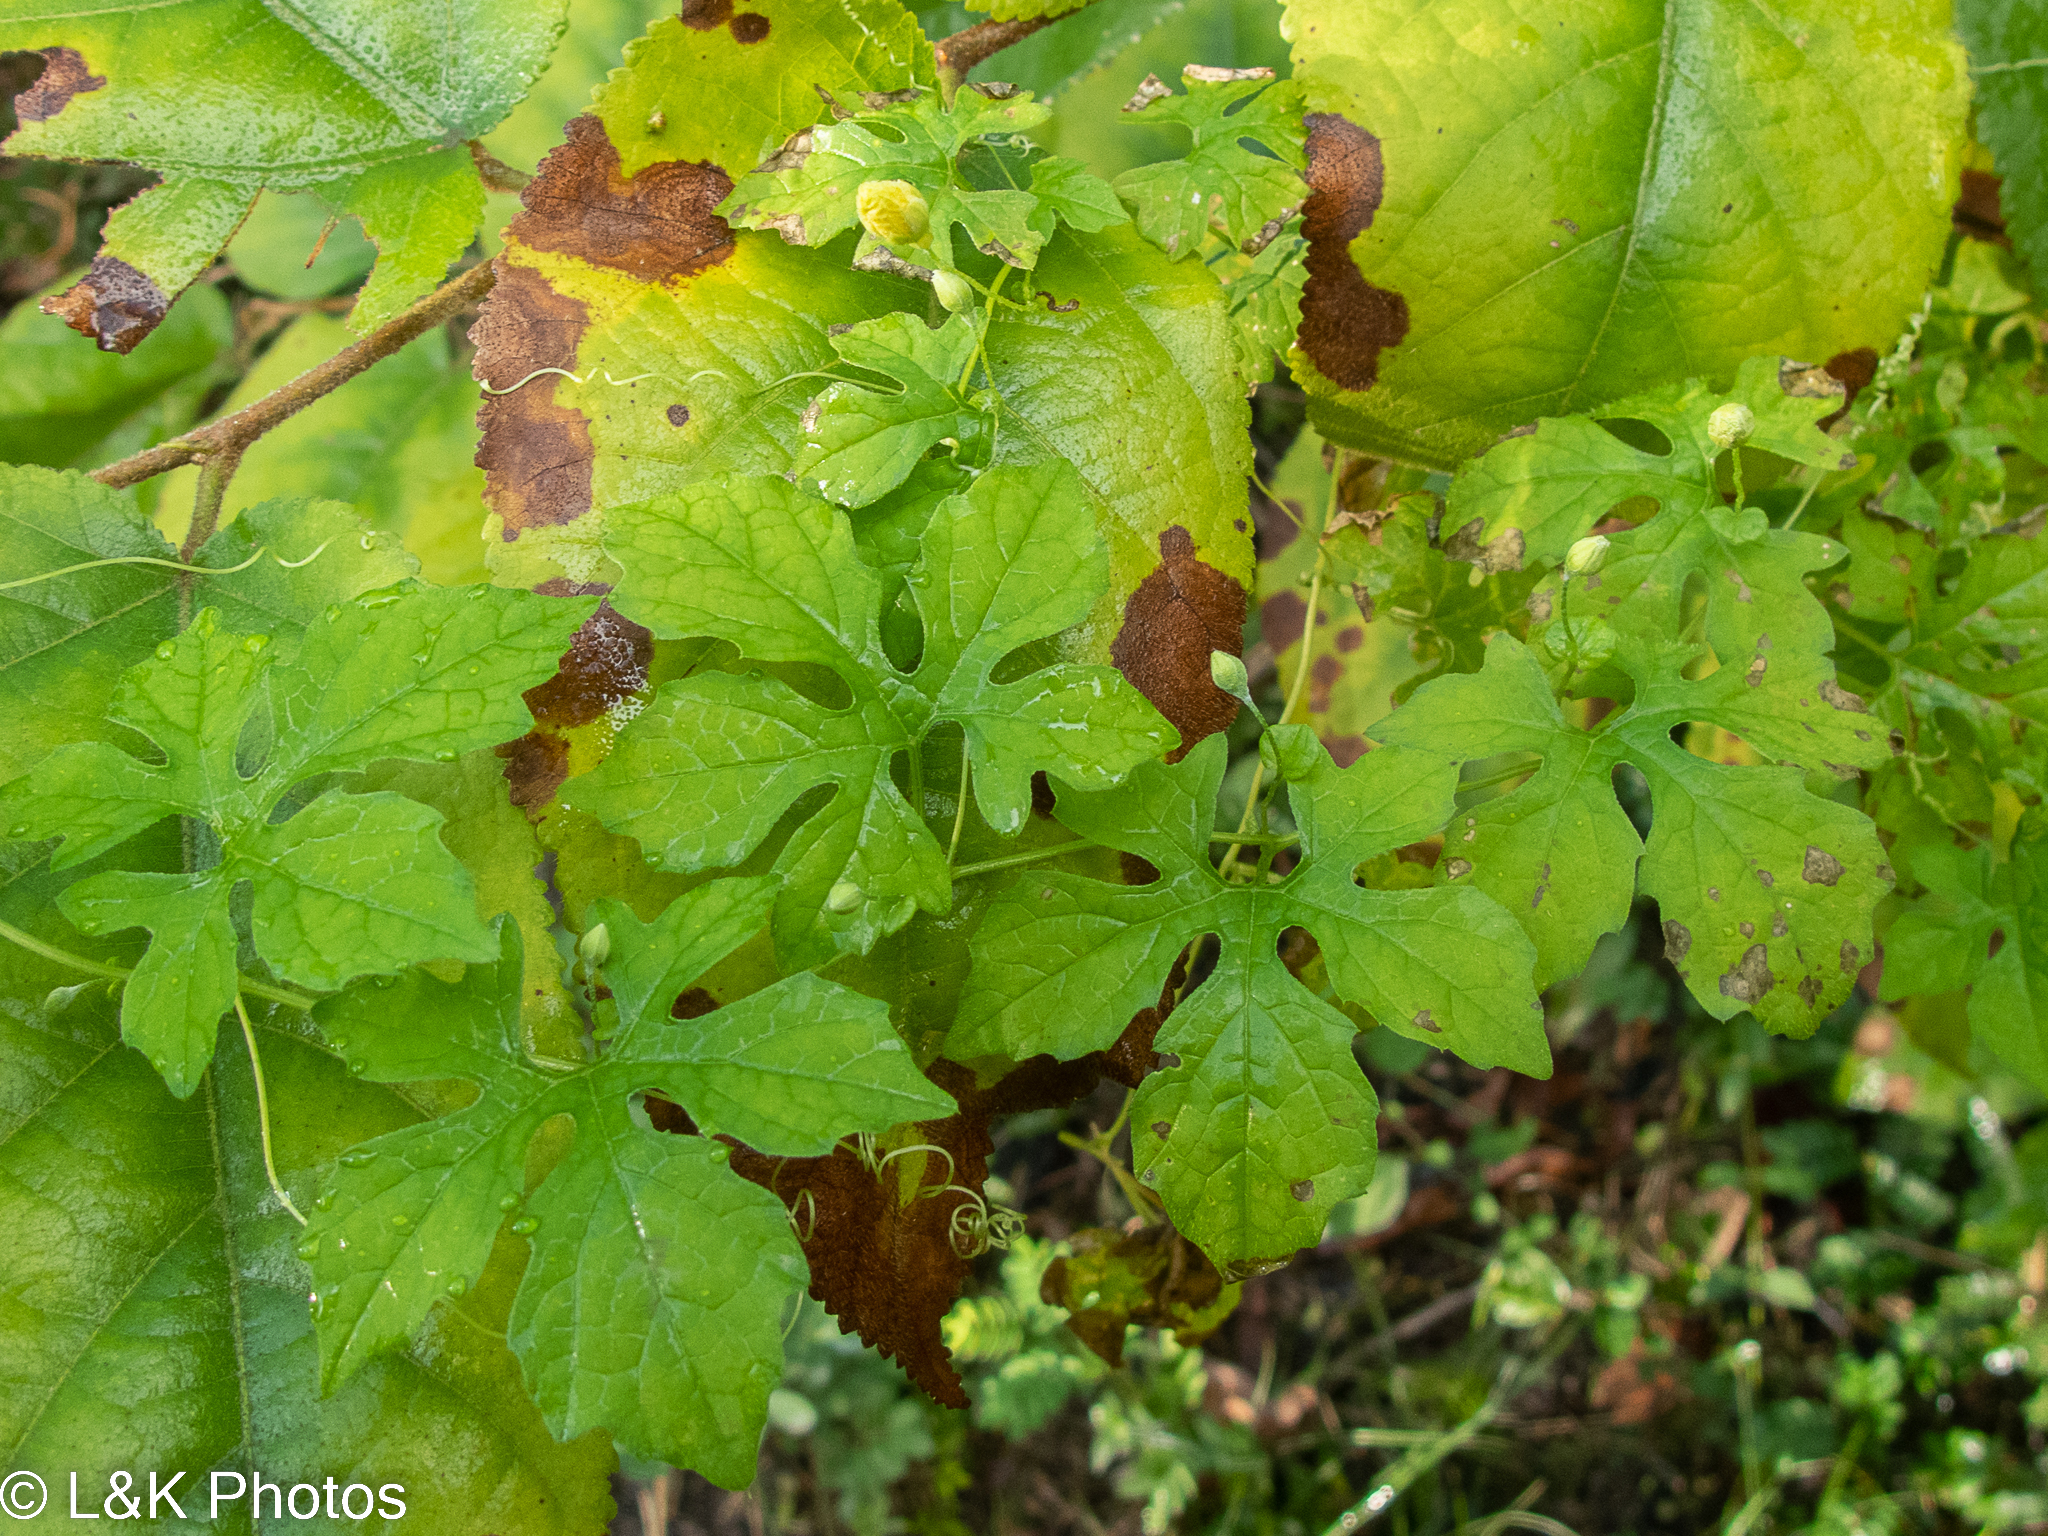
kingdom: Plantae
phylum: Tracheophyta
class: Magnoliopsida
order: Cucurbitales
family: Cucurbitaceae
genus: Momordica
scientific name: Momordica charantia
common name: Balsampear
